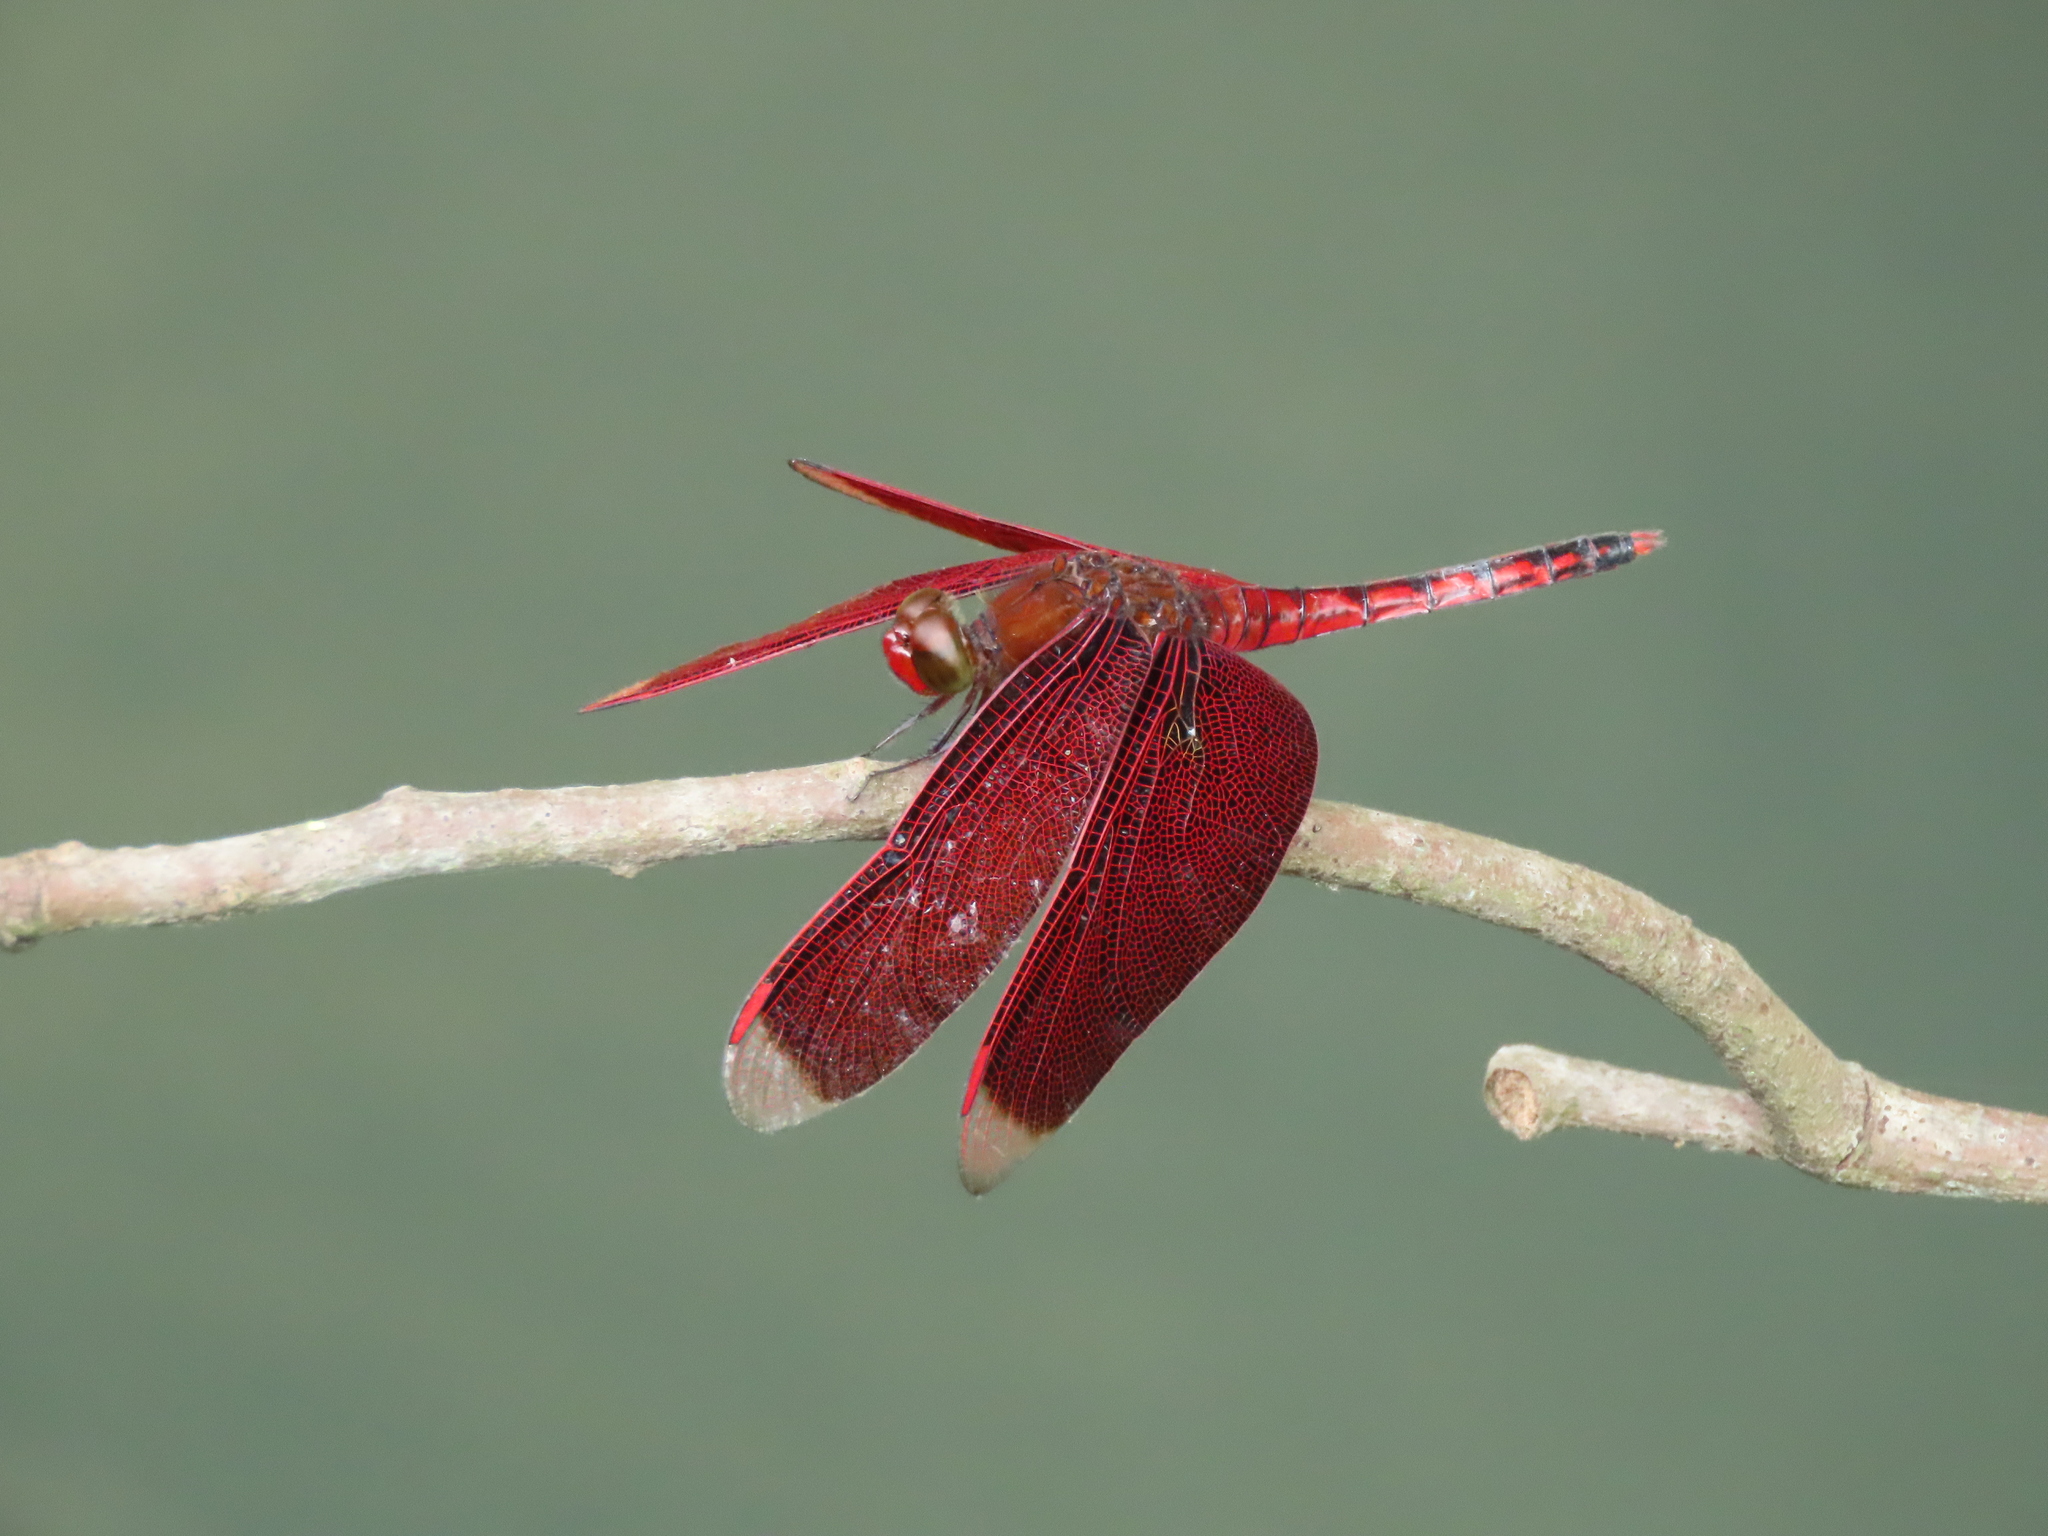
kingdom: Animalia
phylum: Arthropoda
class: Insecta
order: Odonata
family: Libellulidae
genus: Neurothemis
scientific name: Neurothemis taiwanensis
